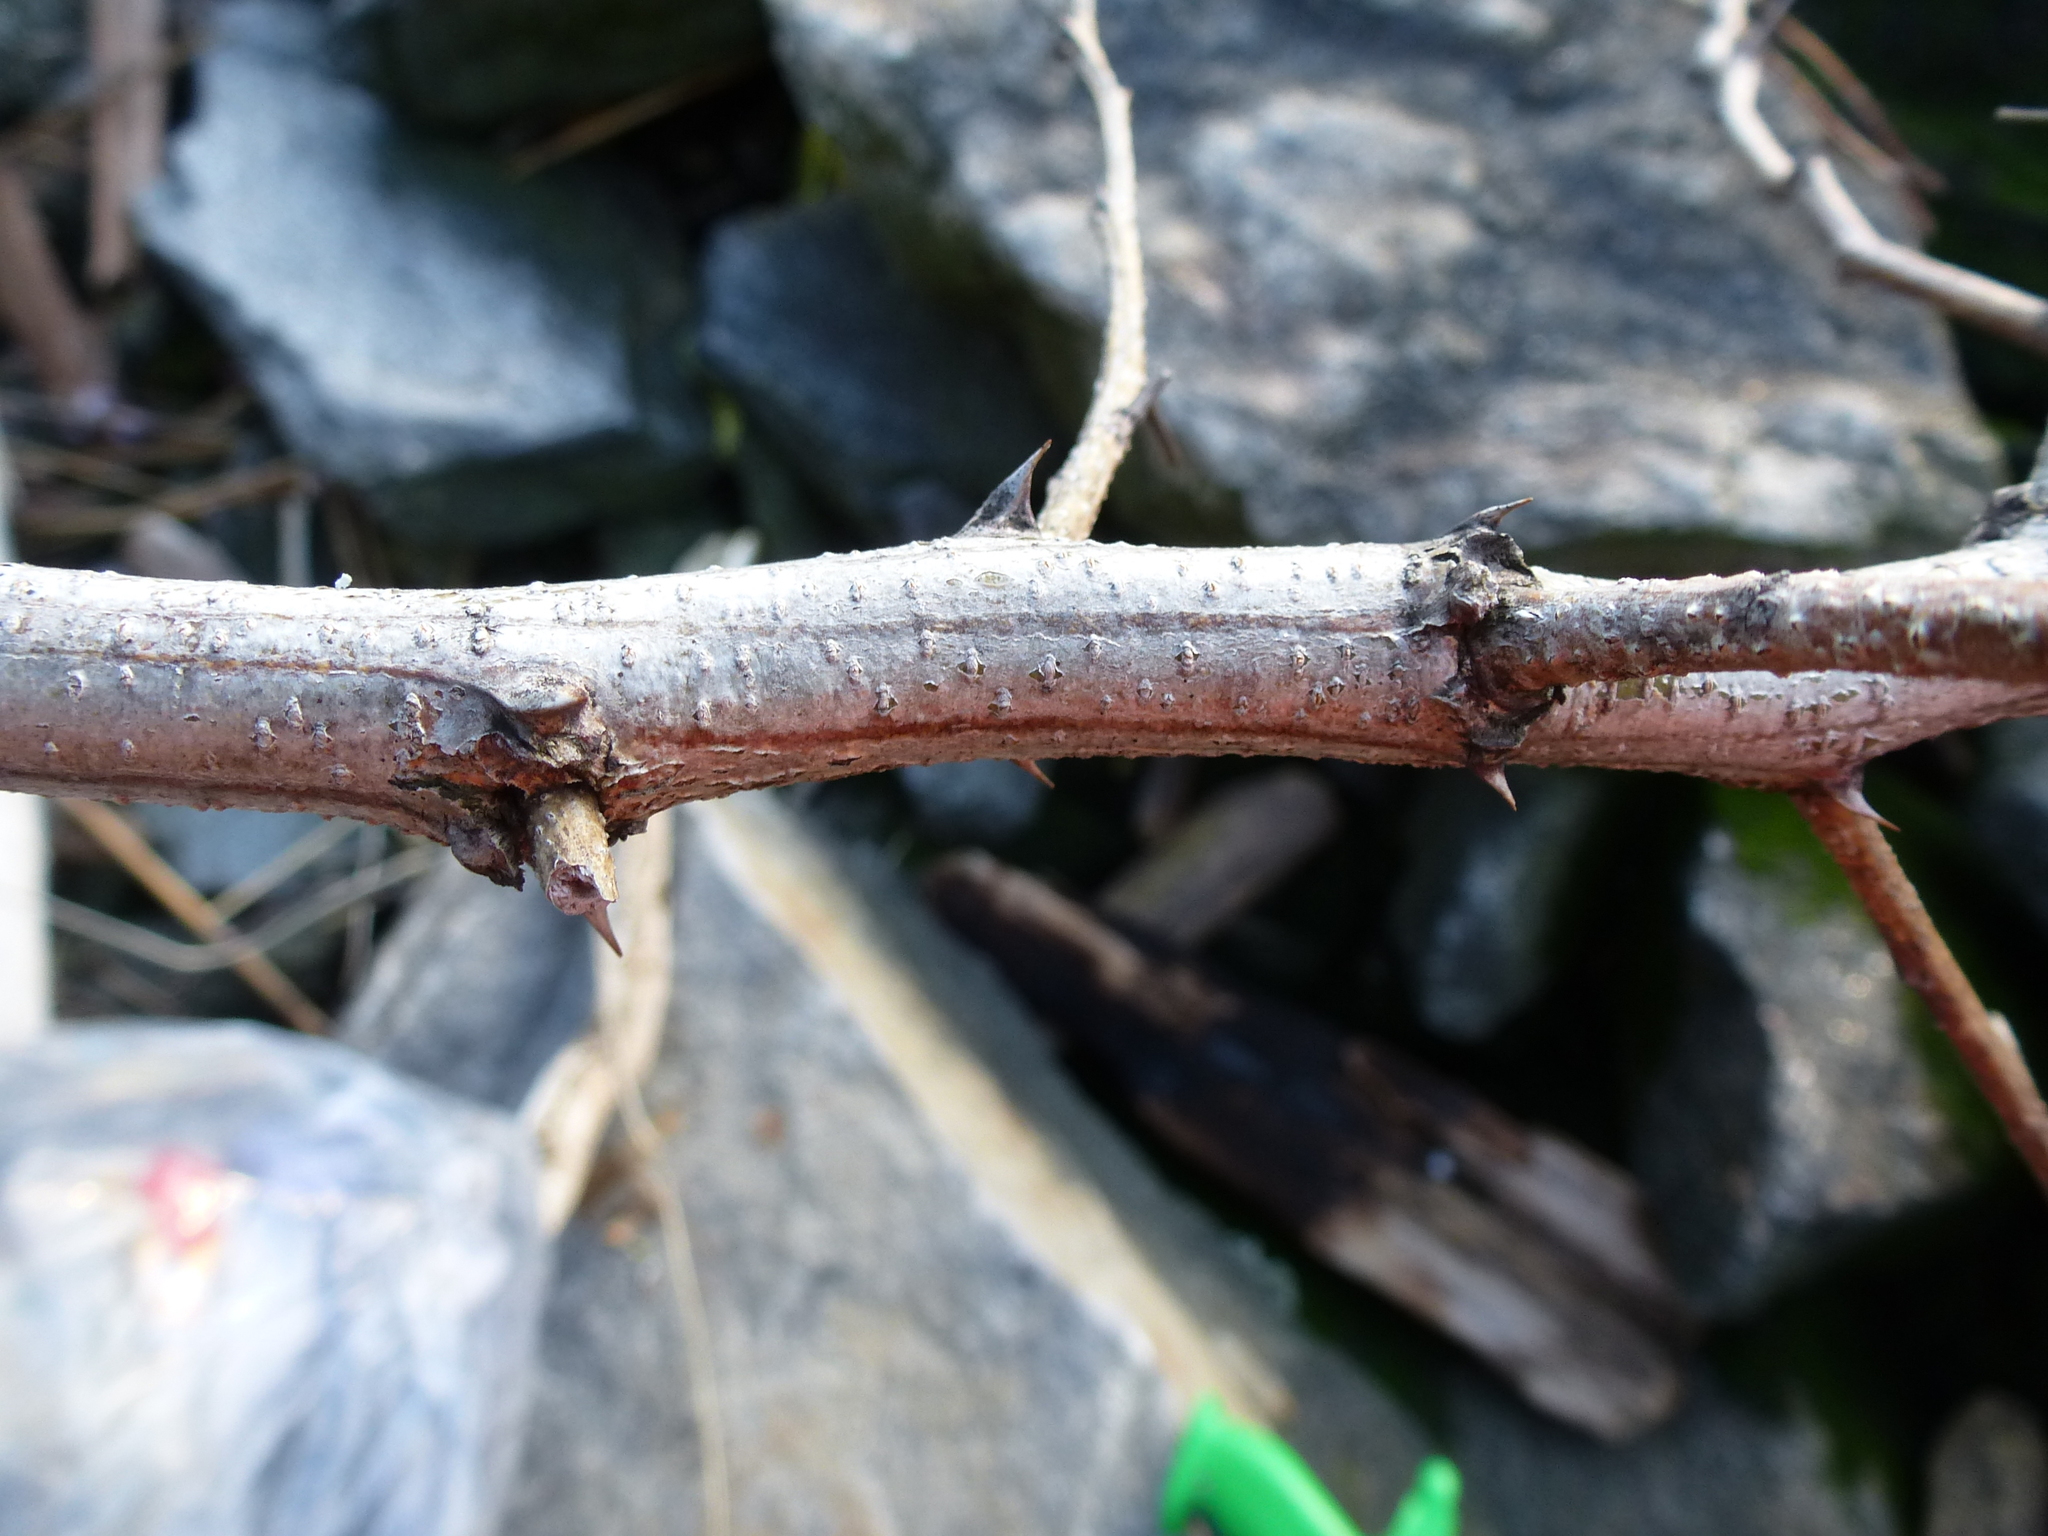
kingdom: Plantae
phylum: Tracheophyta
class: Magnoliopsida
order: Fabales
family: Fabaceae
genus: Robinia
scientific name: Robinia pseudoacacia
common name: Black locust
